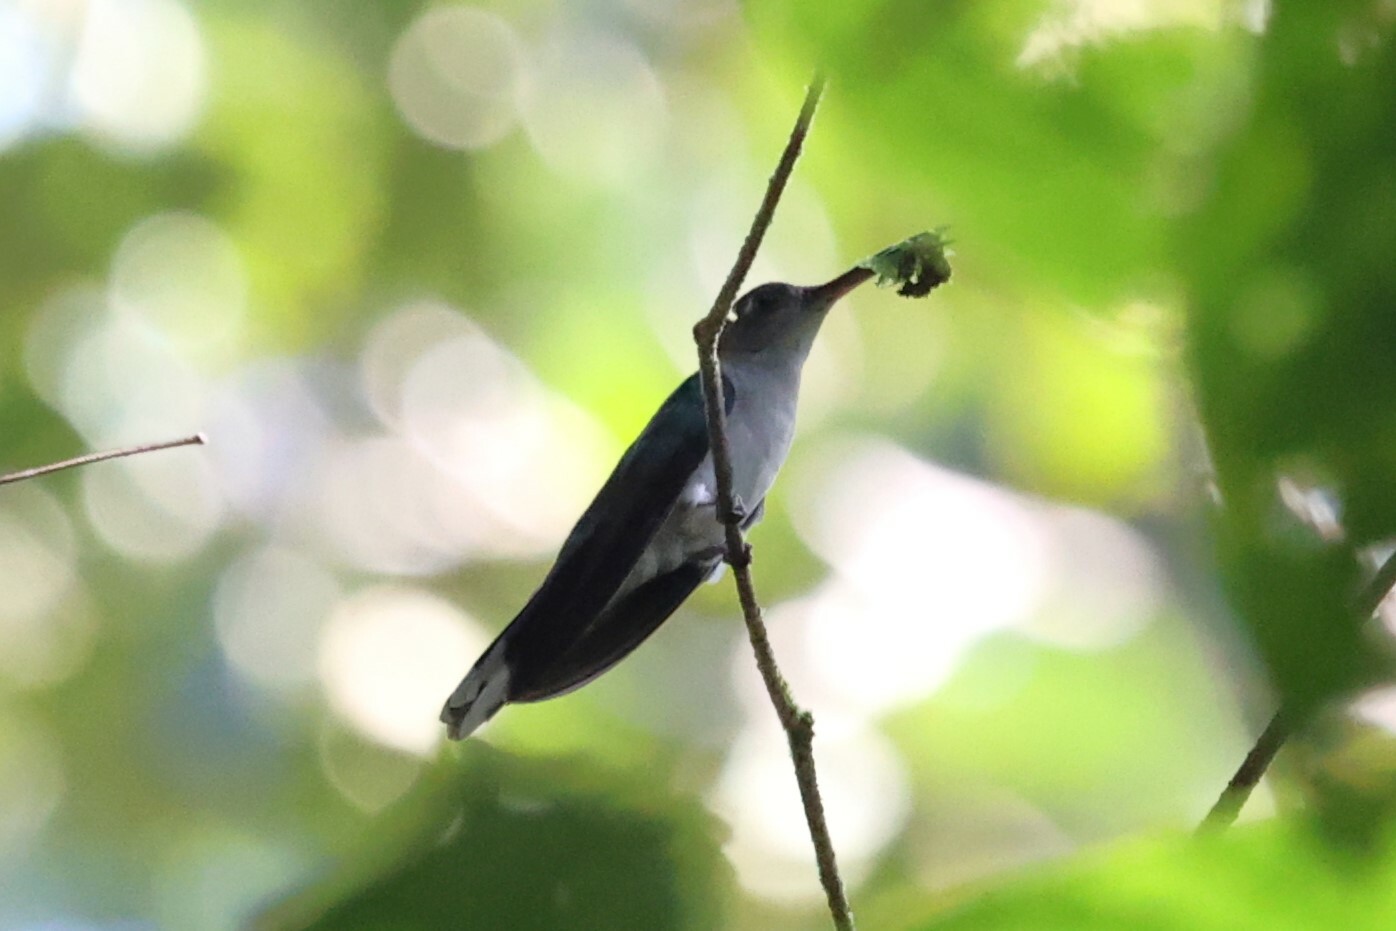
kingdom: Animalia
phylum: Chordata
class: Aves
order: Apodiformes
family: Trochilidae
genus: Campylopterus
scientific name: Campylopterus largipennis
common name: Gray-breasted sabrewing
